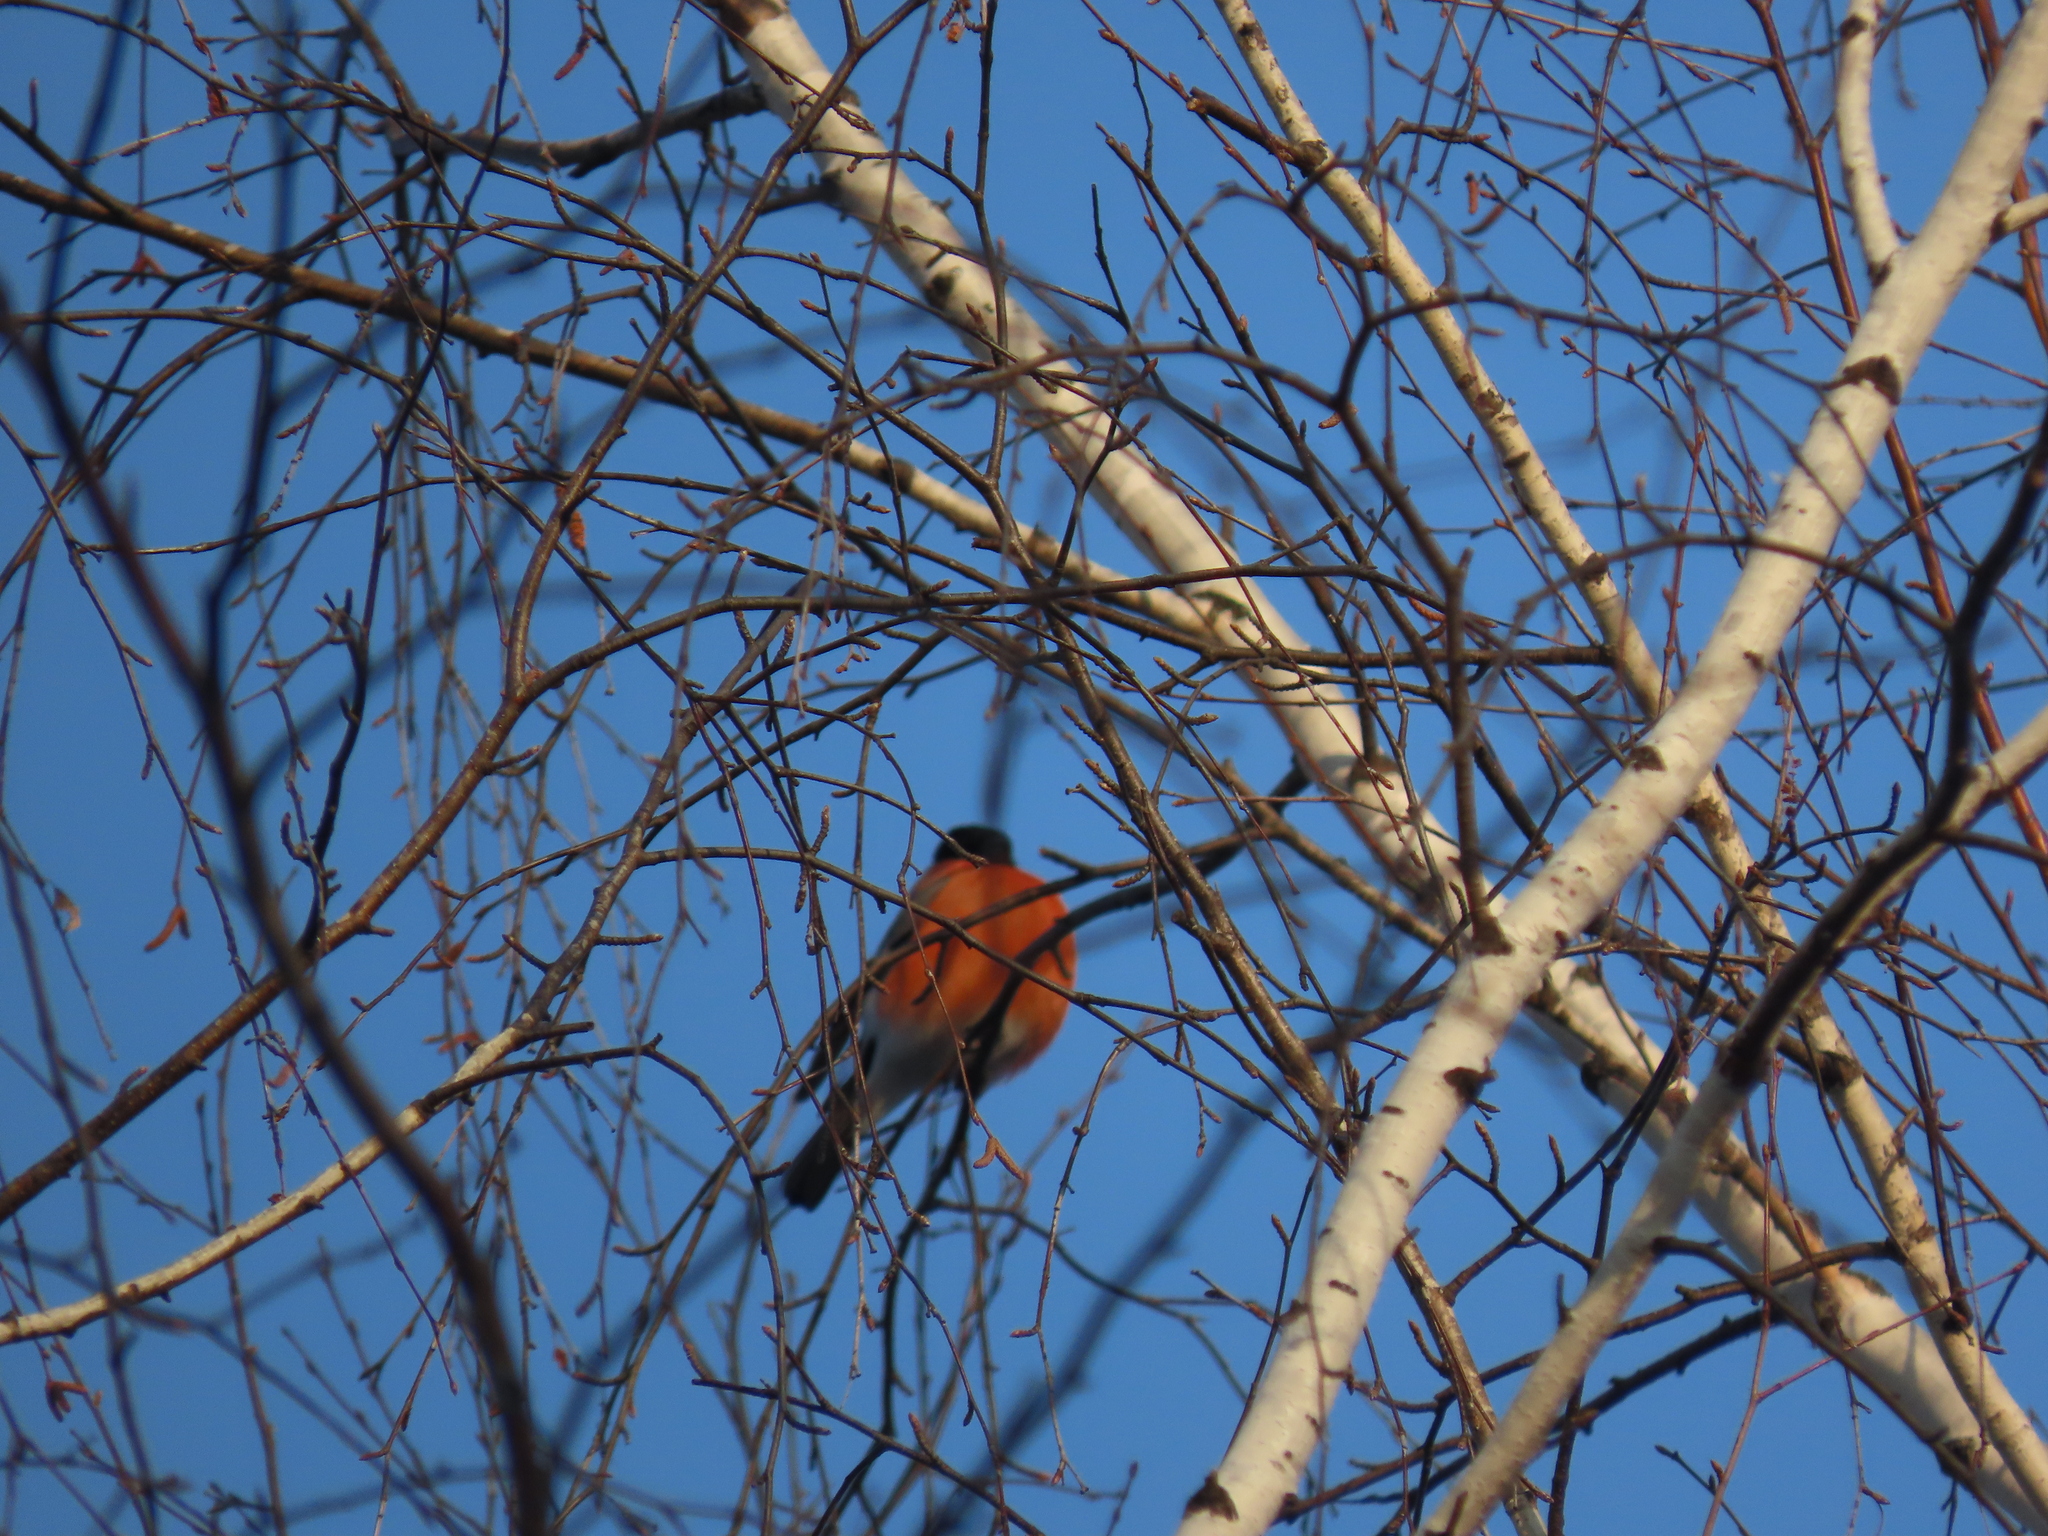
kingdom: Animalia
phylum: Chordata
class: Aves
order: Passeriformes
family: Fringillidae
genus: Pyrrhula
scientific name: Pyrrhula pyrrhula
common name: Eurasian bullfinch
